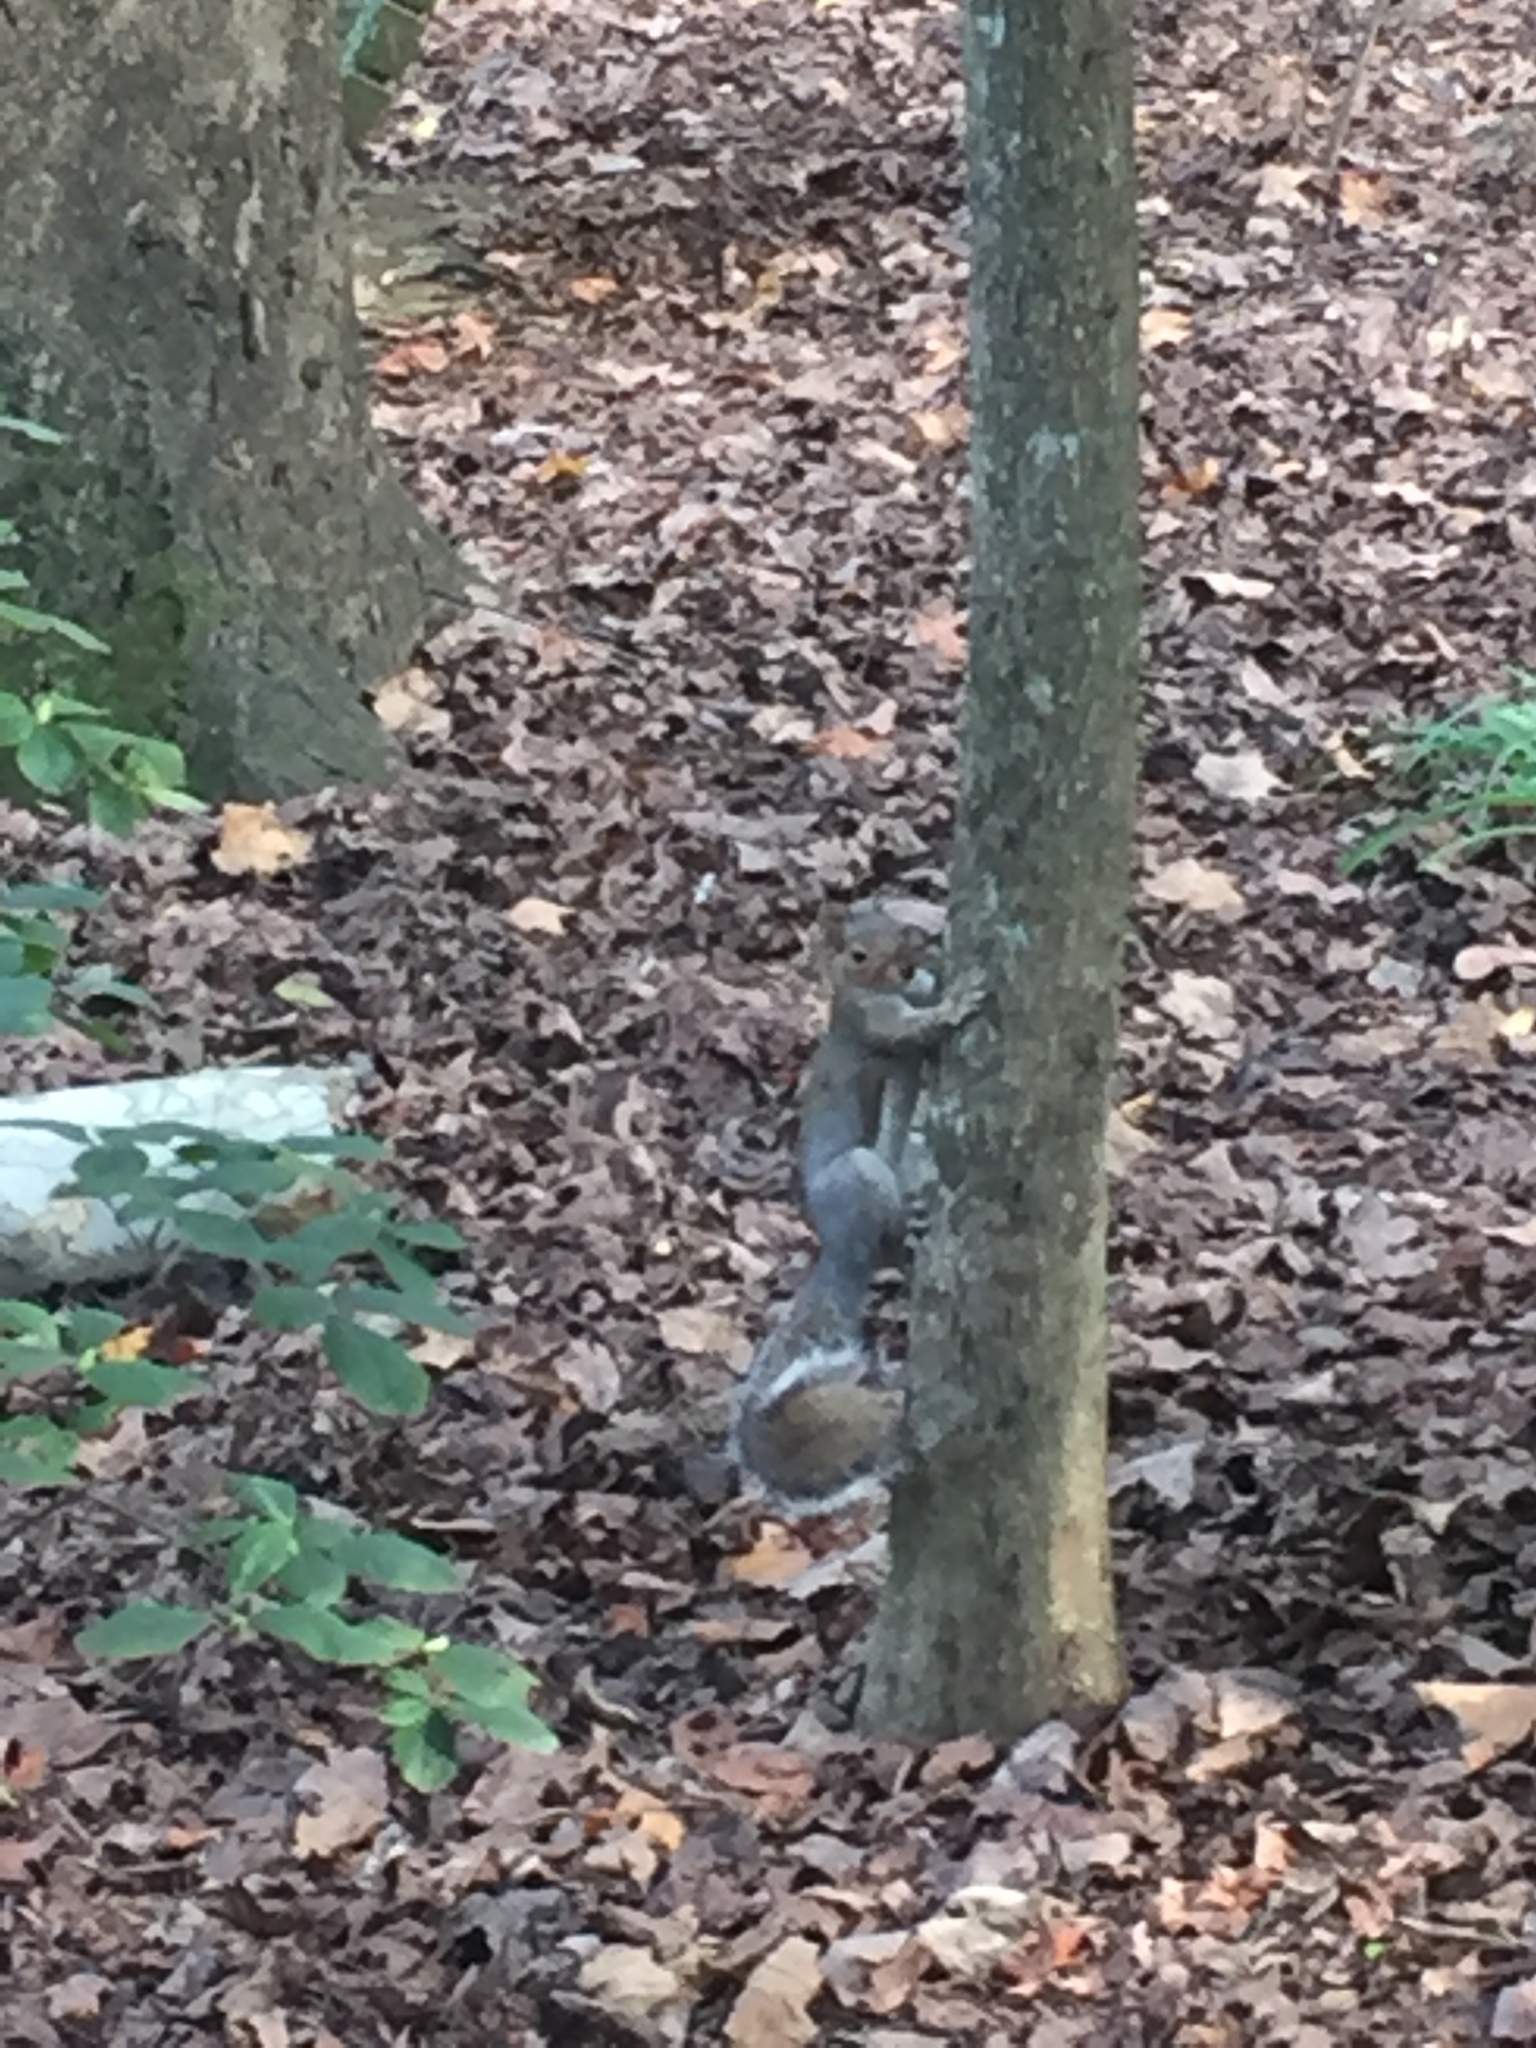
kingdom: Animalia
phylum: Chordata
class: Mammalia
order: Rodentia
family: Sciuridae
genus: Sciurus
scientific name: Sciurus carolinensis
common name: Eastern gray squirrel
